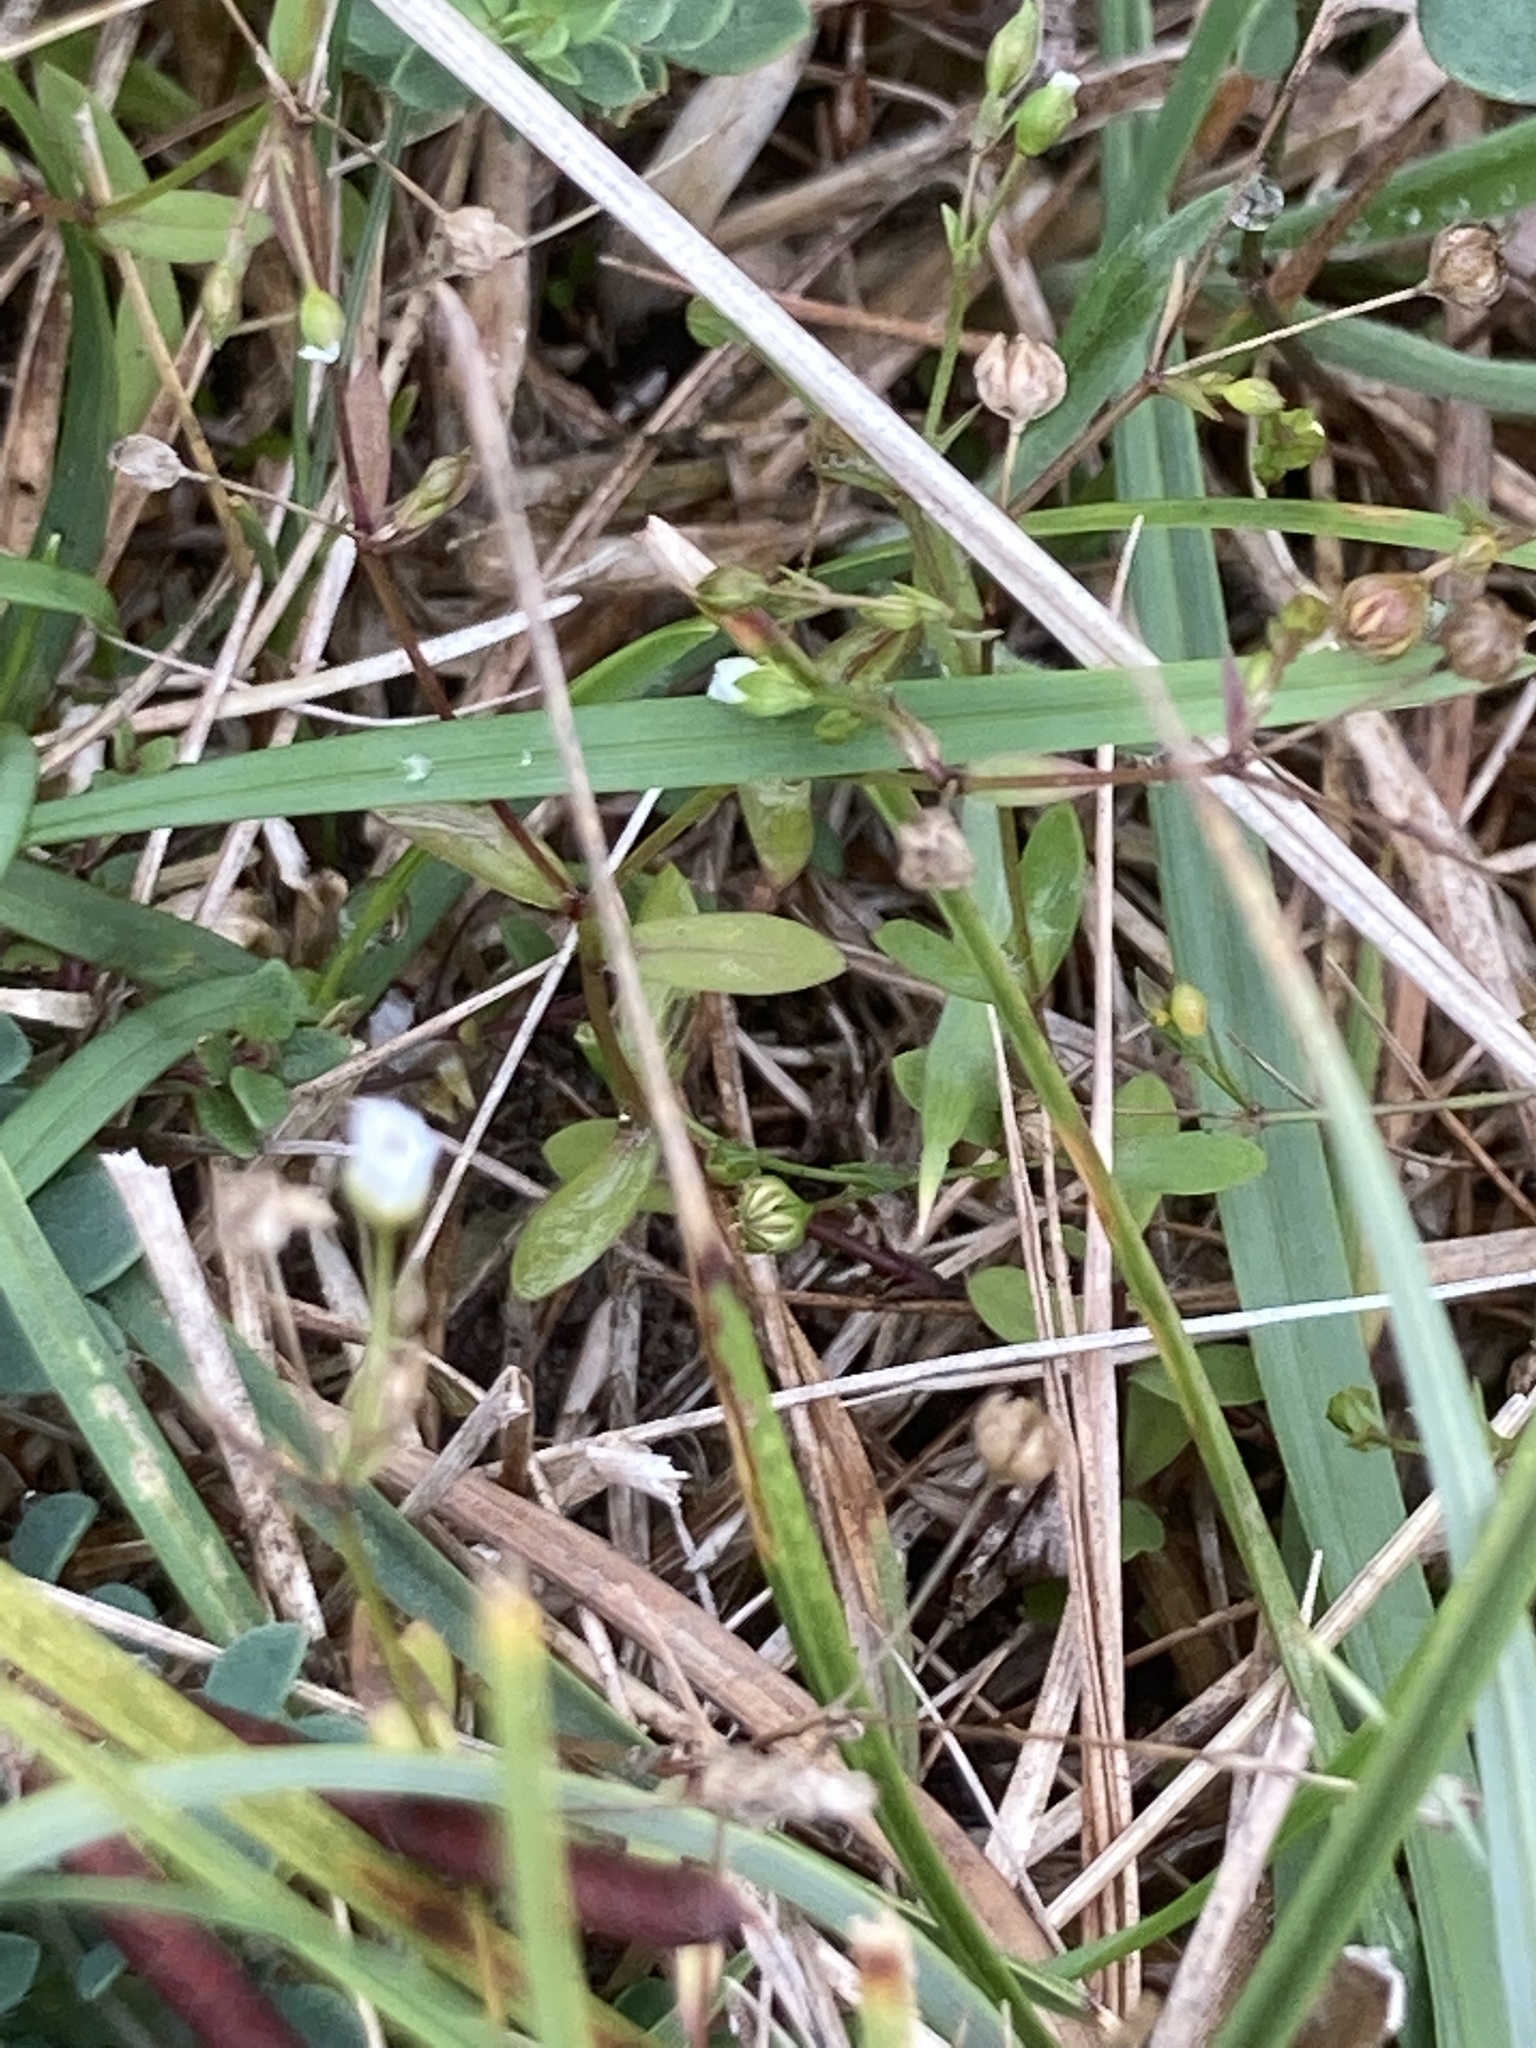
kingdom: Plantae
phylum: Tracheophyta
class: Magnoliopsida
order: Malpighiales
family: Linaceae
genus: Linum
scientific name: Linum catharticum
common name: Fairy flax
